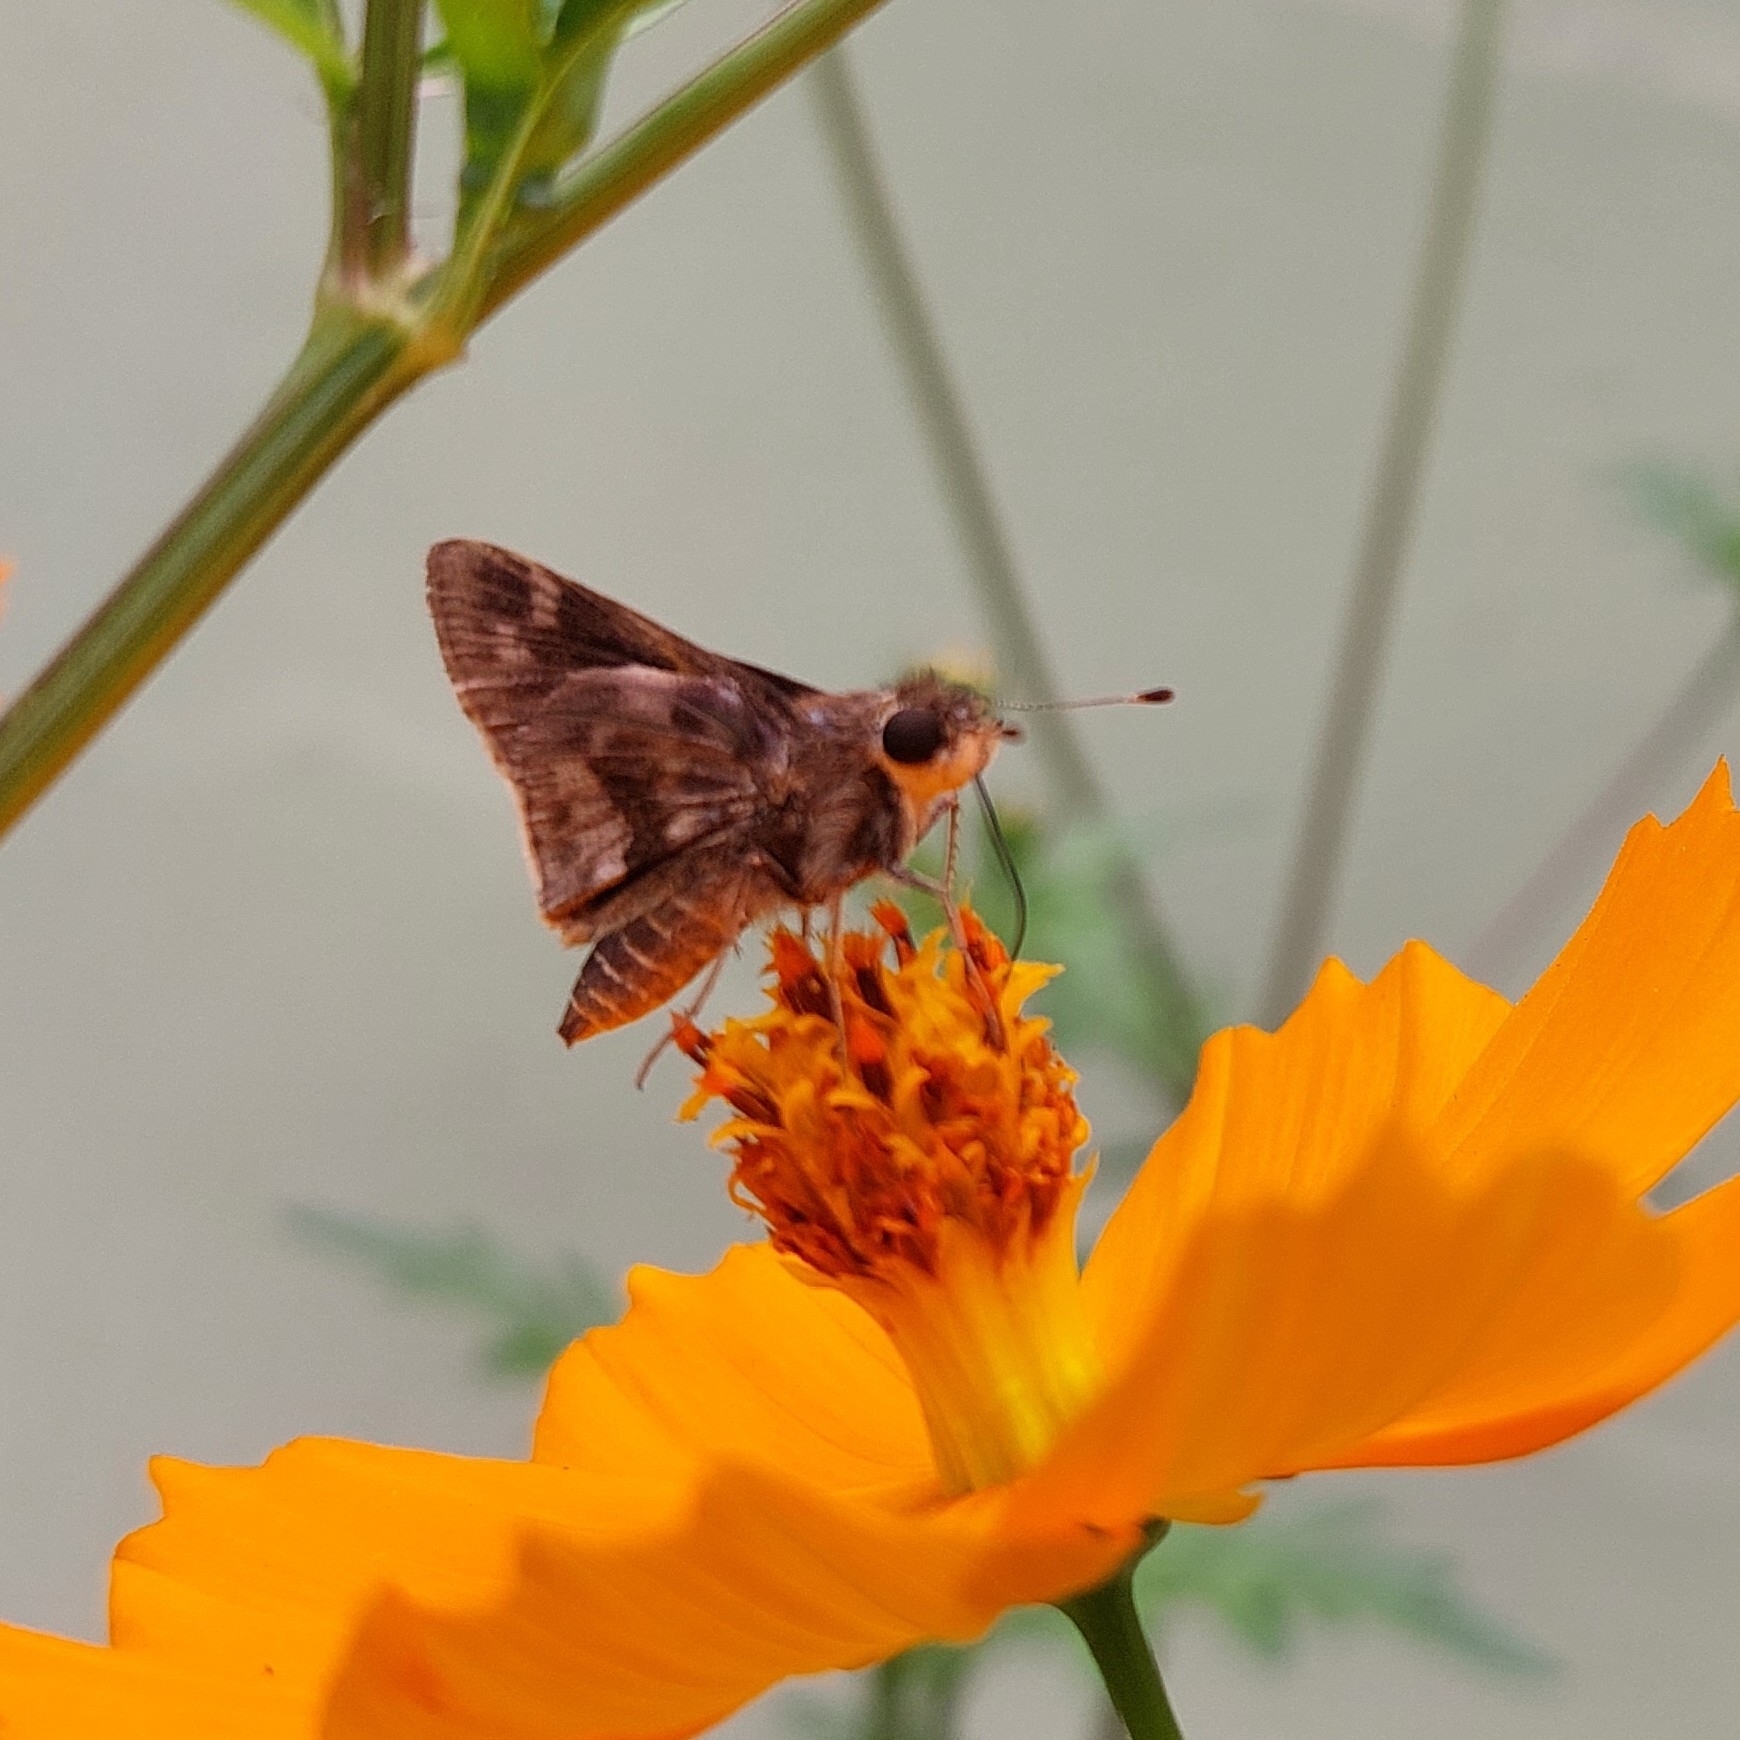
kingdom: Animalia
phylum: Arthropoda
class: Insecta
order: Lepidoptera
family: Hesperiidae
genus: Pompeius
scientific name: Pompeius pompeius
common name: Pompeius skipper
